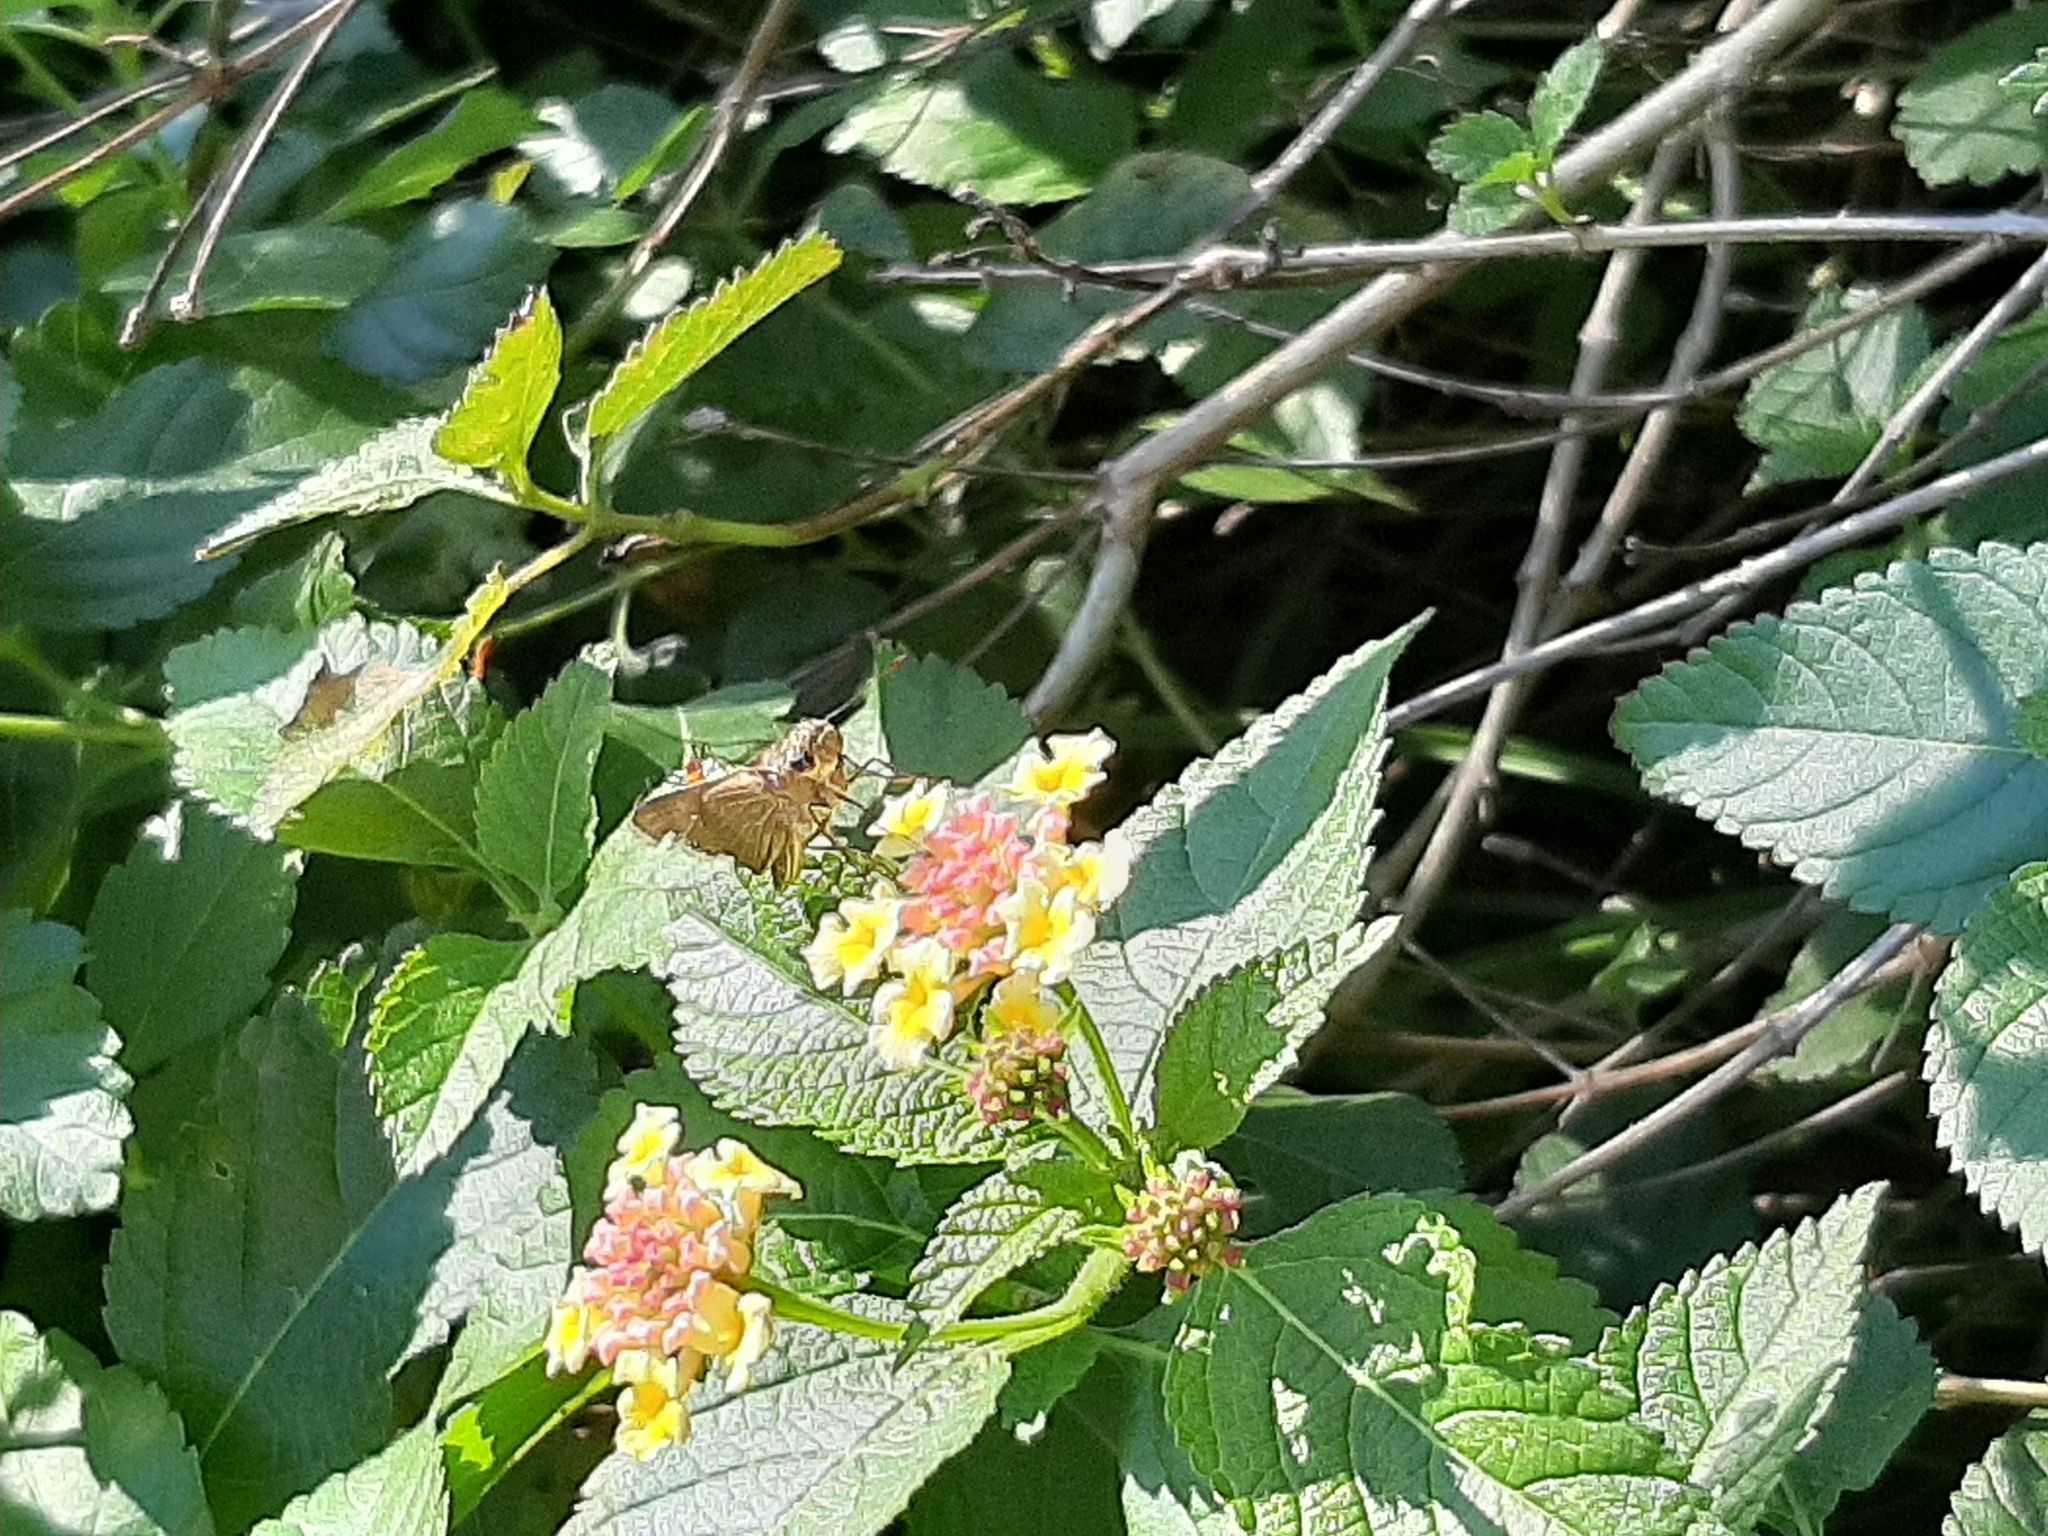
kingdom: Animalia
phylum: Arthropoda
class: Insecta
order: Lepidoptera
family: Hesperiidae
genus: Panoquina
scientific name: Panoquina ocola
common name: Ocola skipper
